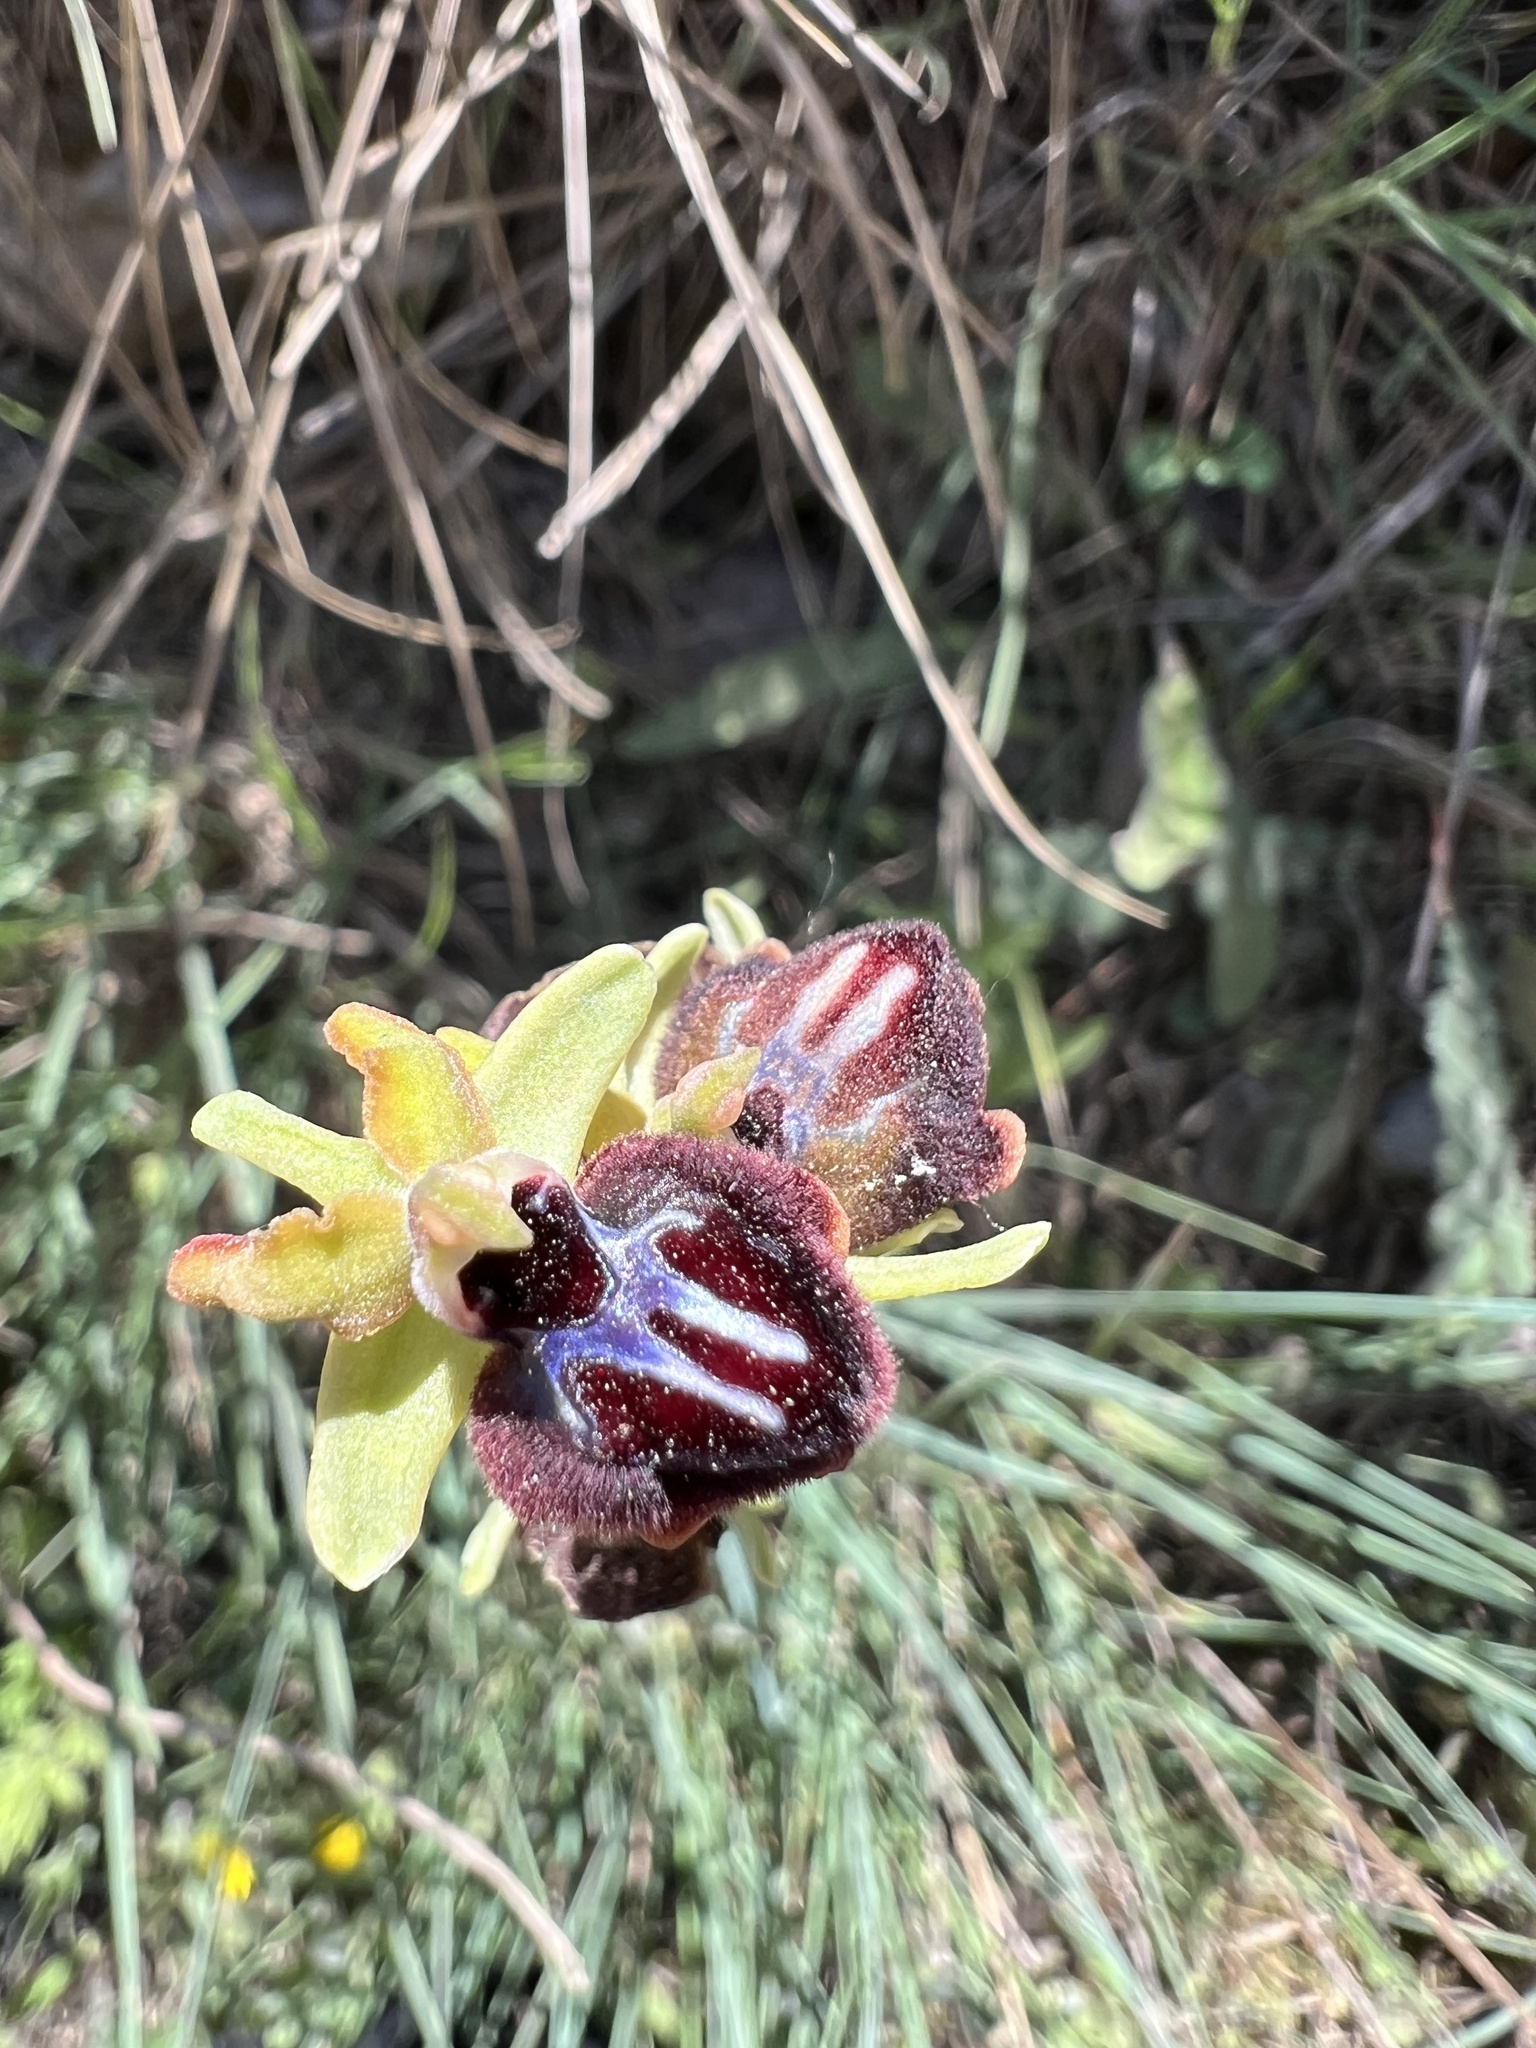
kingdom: Plantae
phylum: Tracheophyta
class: Liliopsida
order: Asparagales
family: Orchidaceae
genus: Ophrys
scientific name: Ophrys sphegodes
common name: Early spider-orchid
